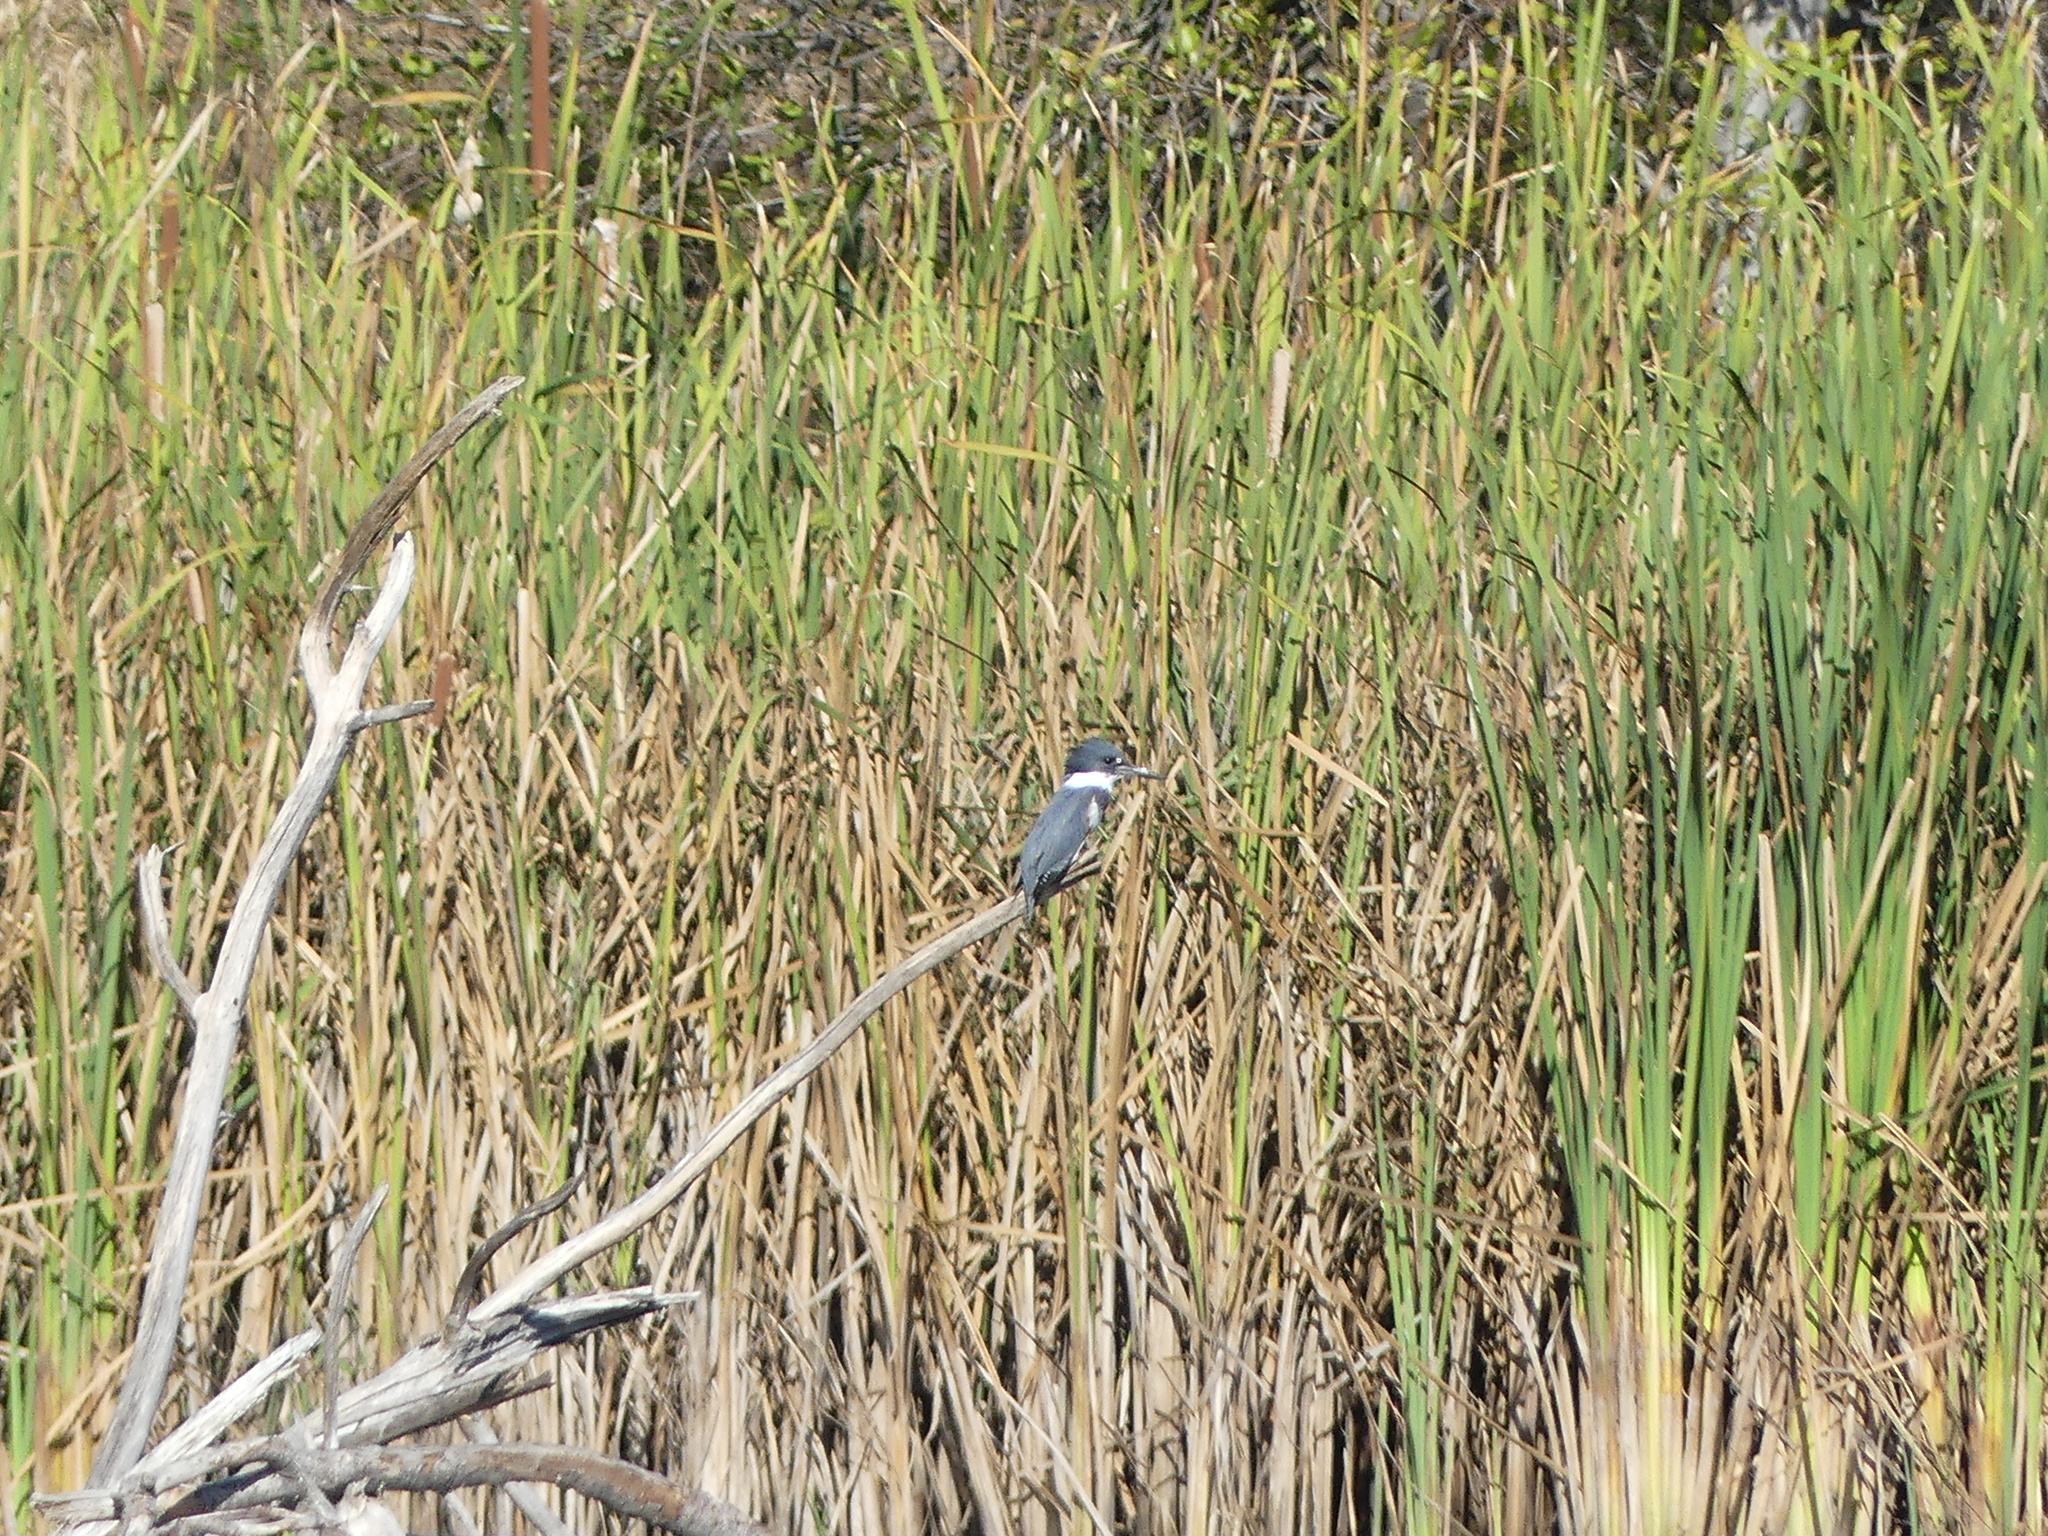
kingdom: Animalia
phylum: Chordata
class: Aves
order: Coraciiformes
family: Alcedinidae
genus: Megaceryle
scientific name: Megaceryle alcyon
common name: Belted kingfisher
